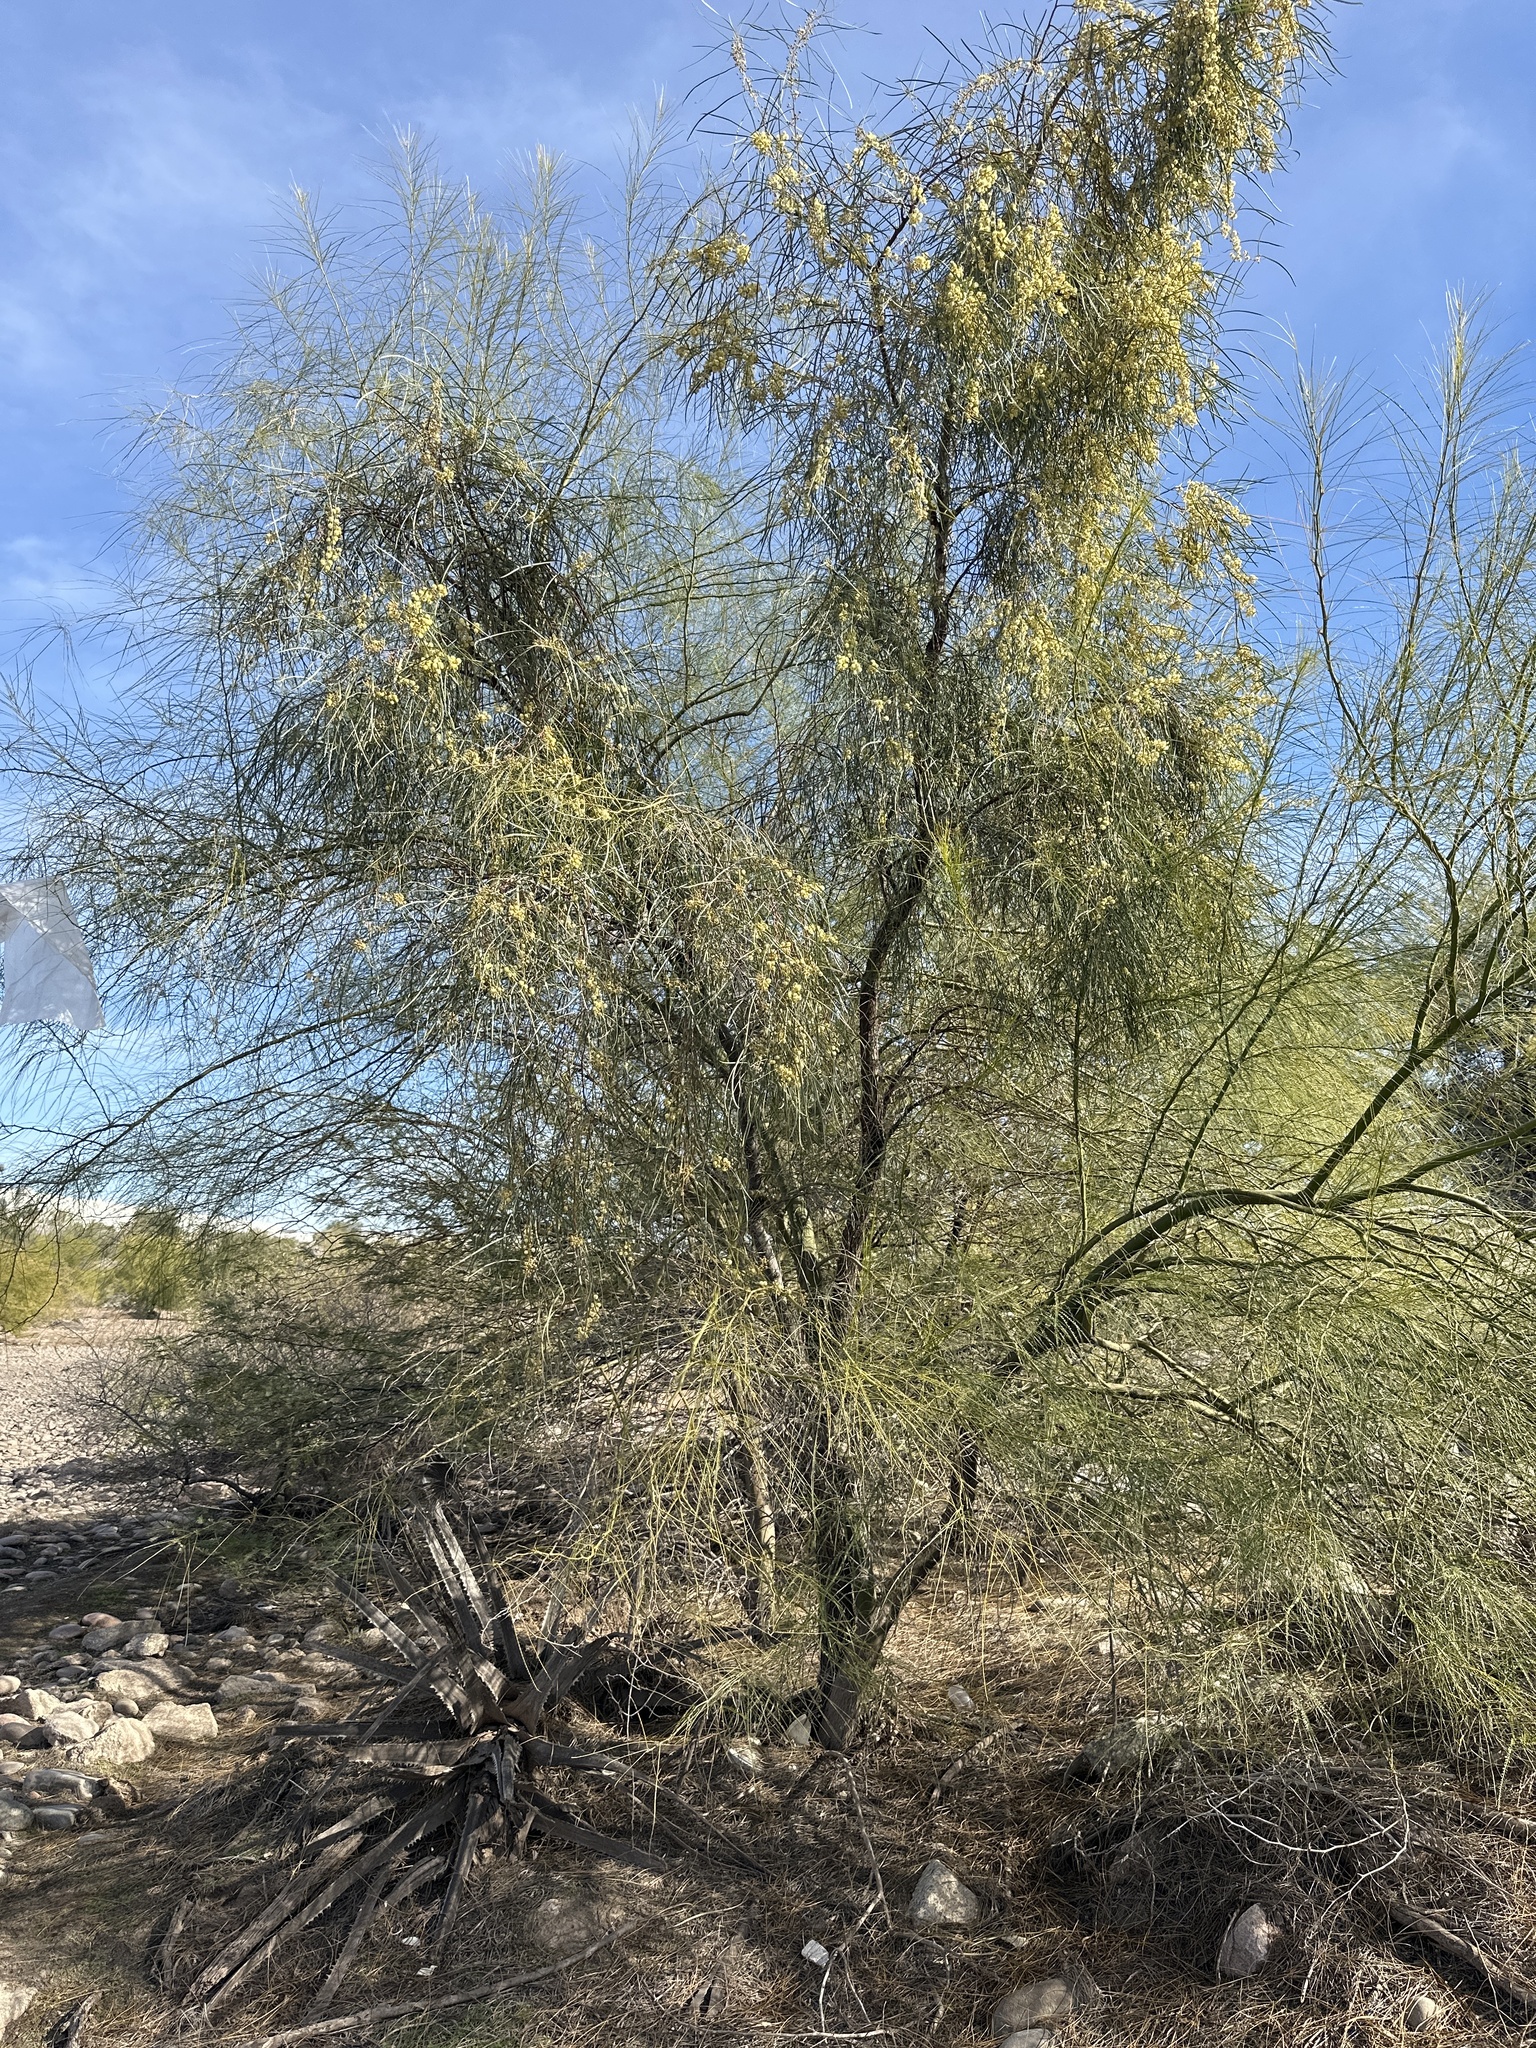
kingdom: Plantae
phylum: Tracheophyta
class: Magnoliopsida
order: Fabales
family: Fabaceae
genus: Acacia
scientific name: Acacia stenophylla
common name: River cooba
